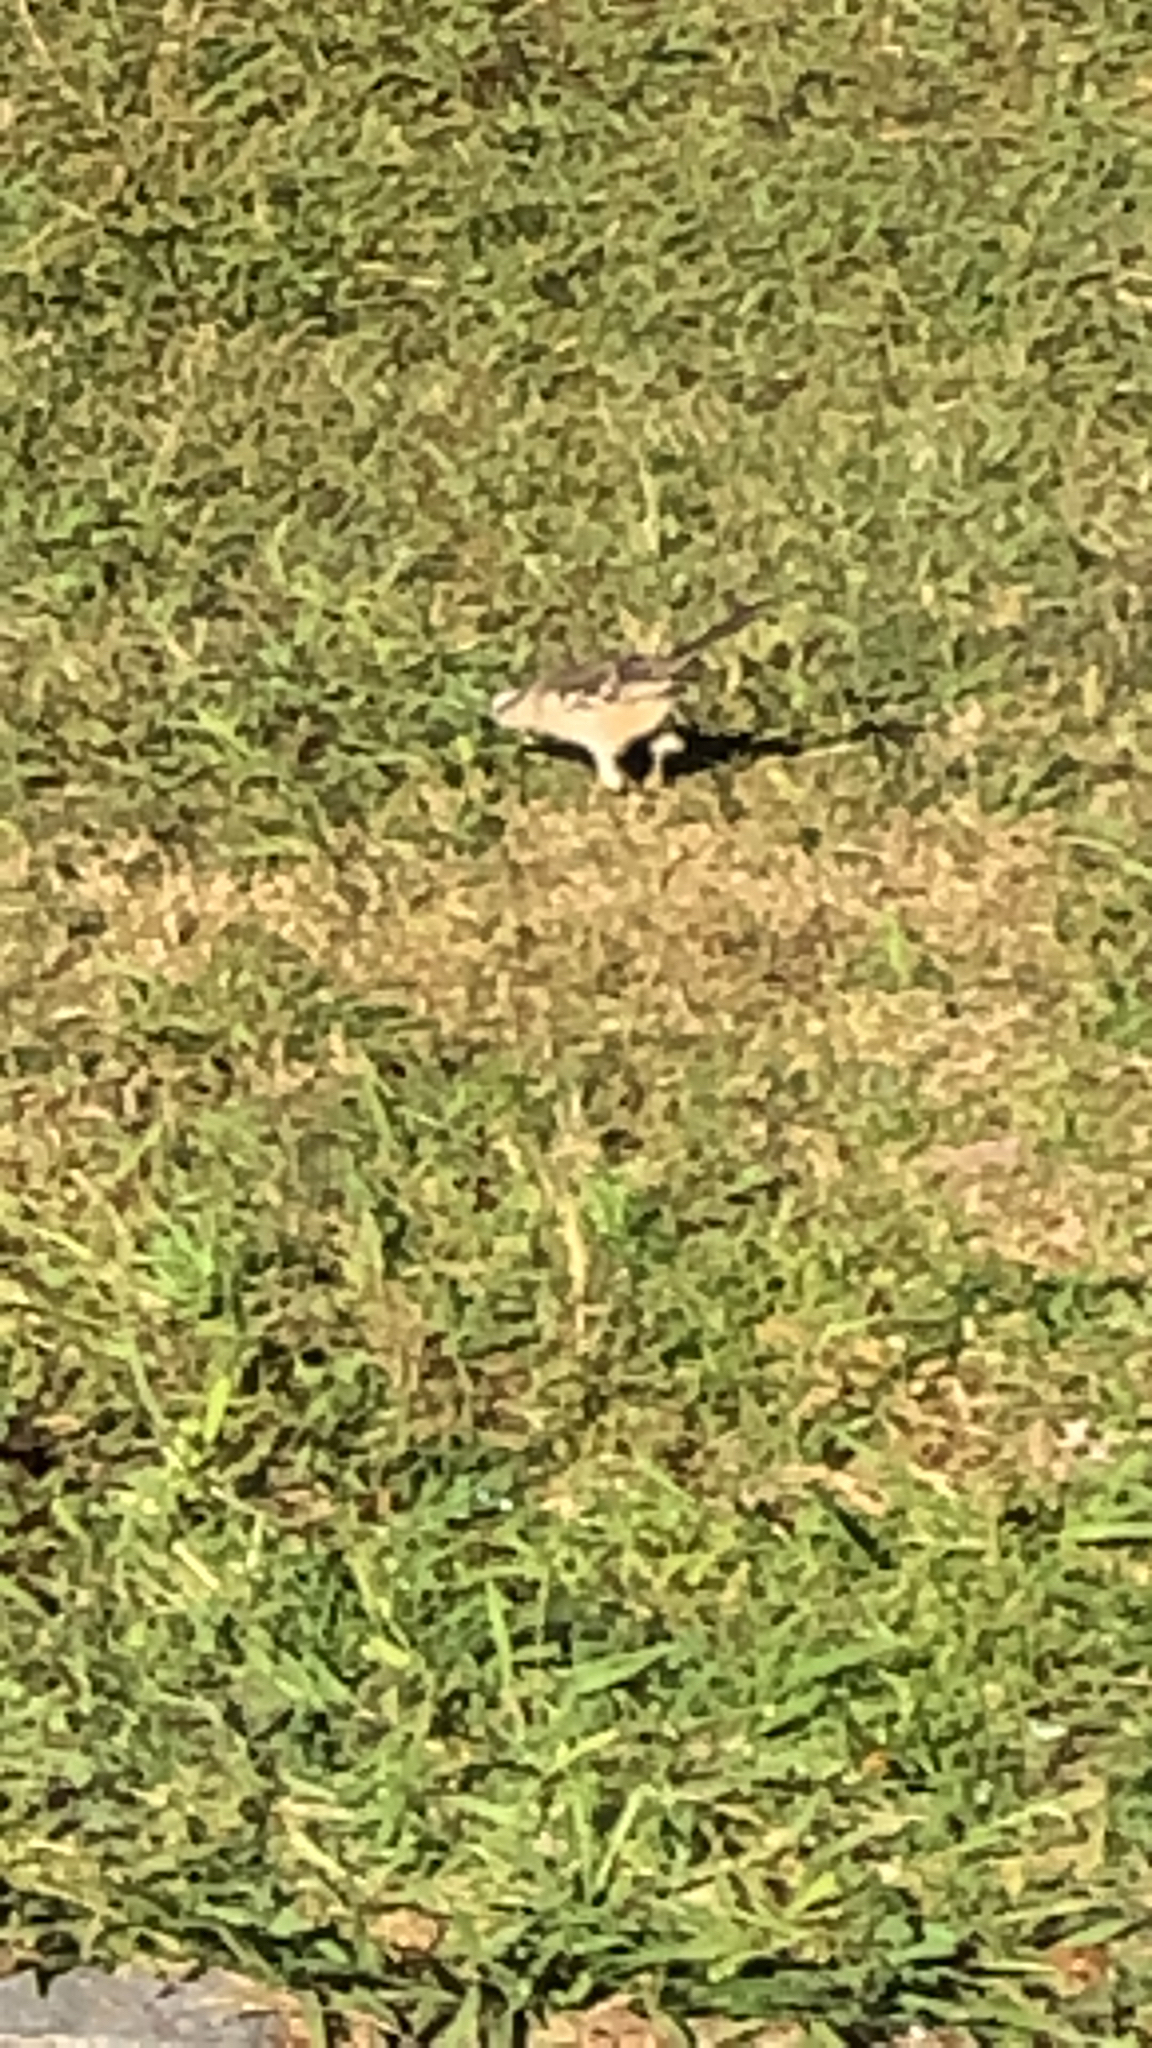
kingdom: Animalia
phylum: Chordata
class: Aves
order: Passeriformes
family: Mimidae
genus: Mimus
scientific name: Mimus saturninus
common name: Chalk-browed mockingbird
